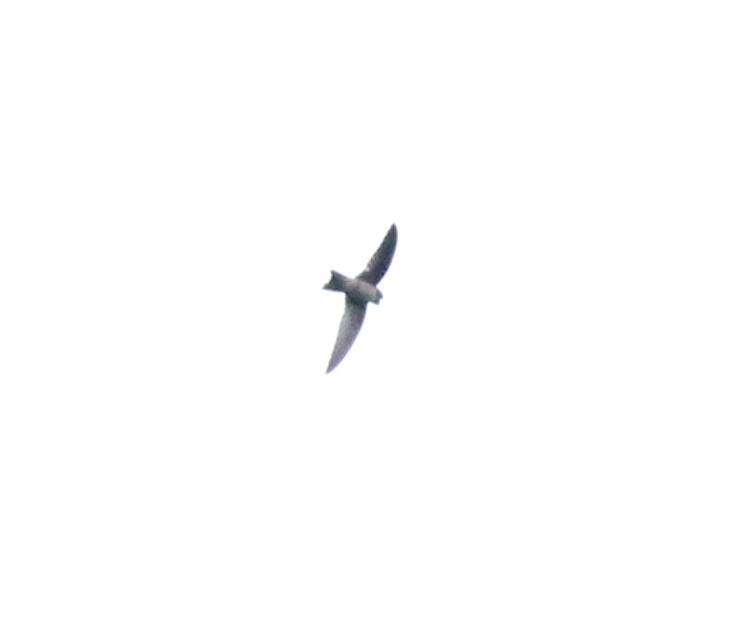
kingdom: Animalia
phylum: Chordata
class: Aves
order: Apodiformes
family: Apodidae
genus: Aerodramus
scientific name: Aerodramus unicolor
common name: Indian swiftlet
